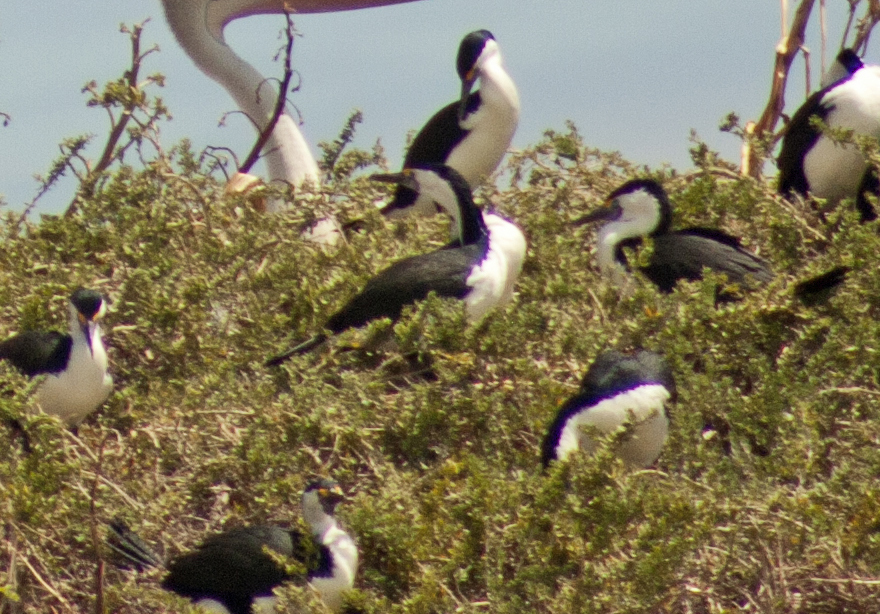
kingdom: Animalia
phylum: Chordata
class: Aves
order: Suliformes
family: Phalacrocoracidae
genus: Phalacrocorax
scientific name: Phalacrocorax varius
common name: Pied cormorant
